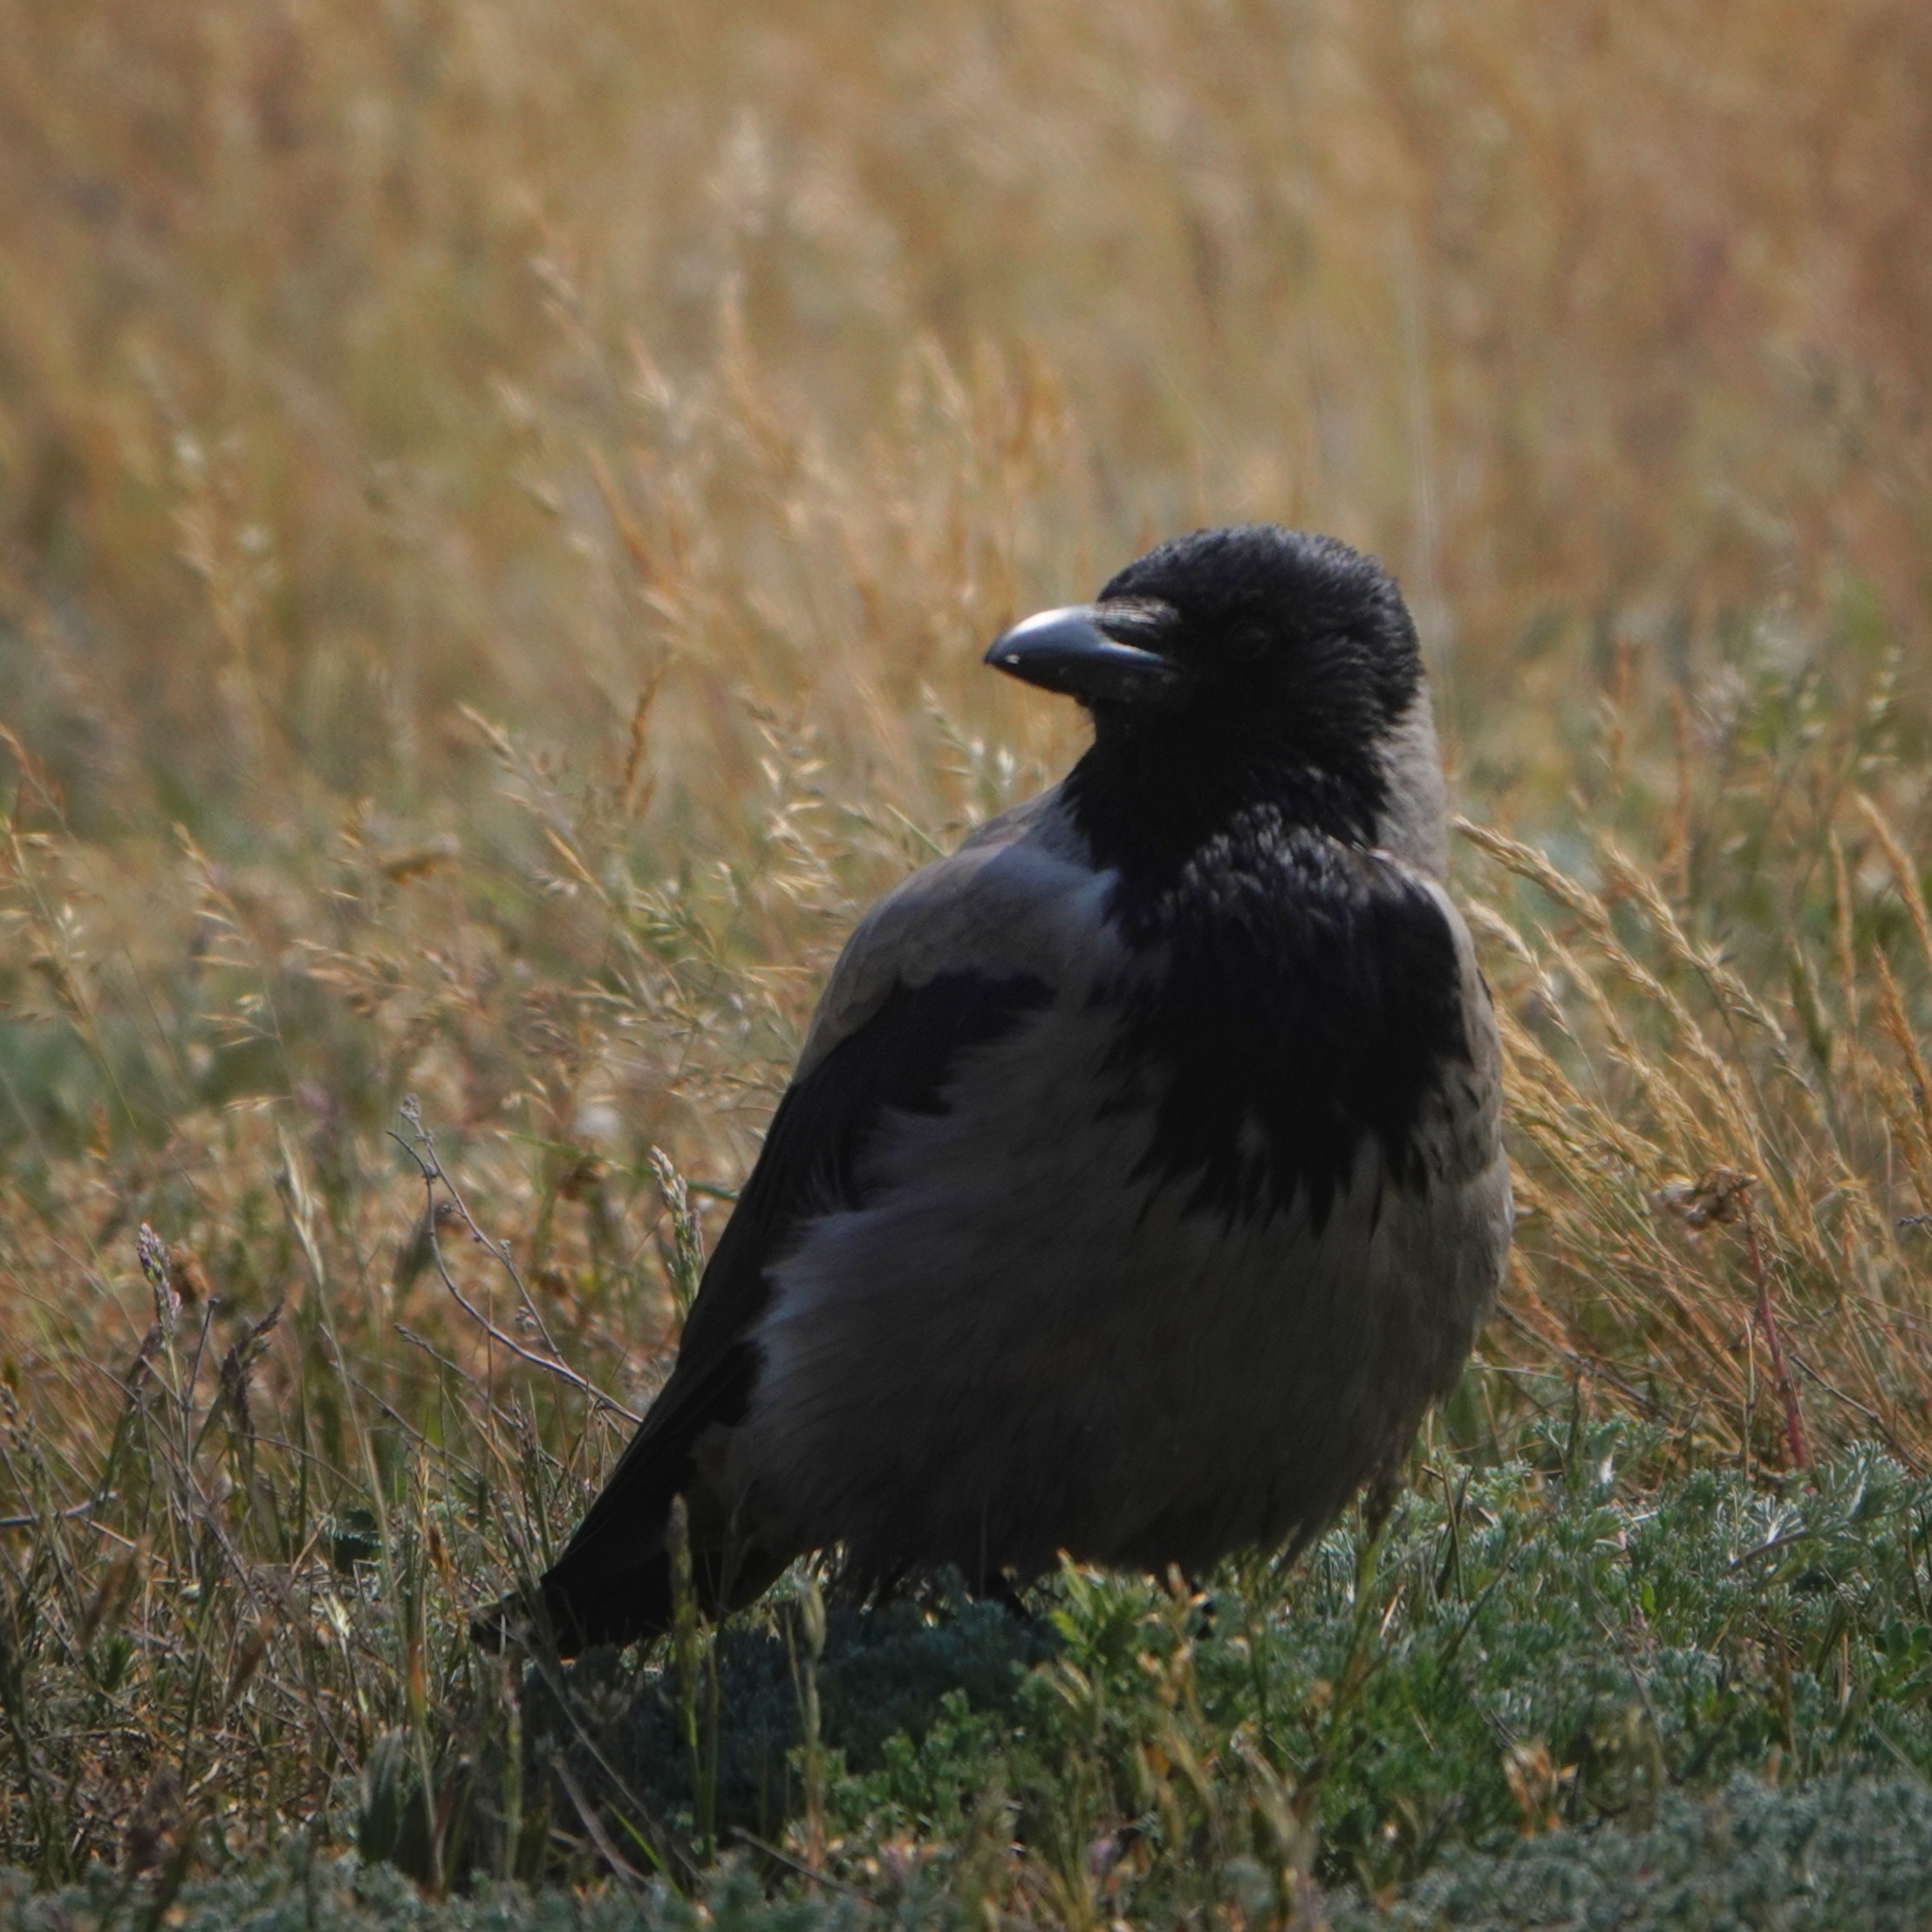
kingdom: Animalia
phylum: Chordata
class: Aves
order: Passeriformes
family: Corvidae
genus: Corvus
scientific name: Corvus cornix
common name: Hooded crow
